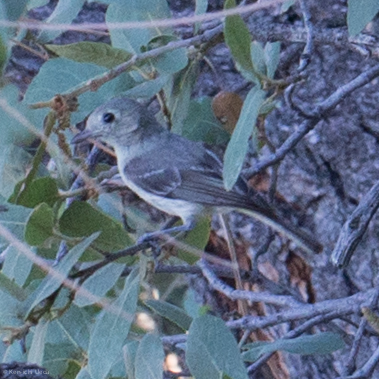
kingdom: Animalia
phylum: Chordata
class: Aves
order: Passeriformes
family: Vireonidae
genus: Vireo
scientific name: Vireo huttoni
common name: Hutton's vireo
